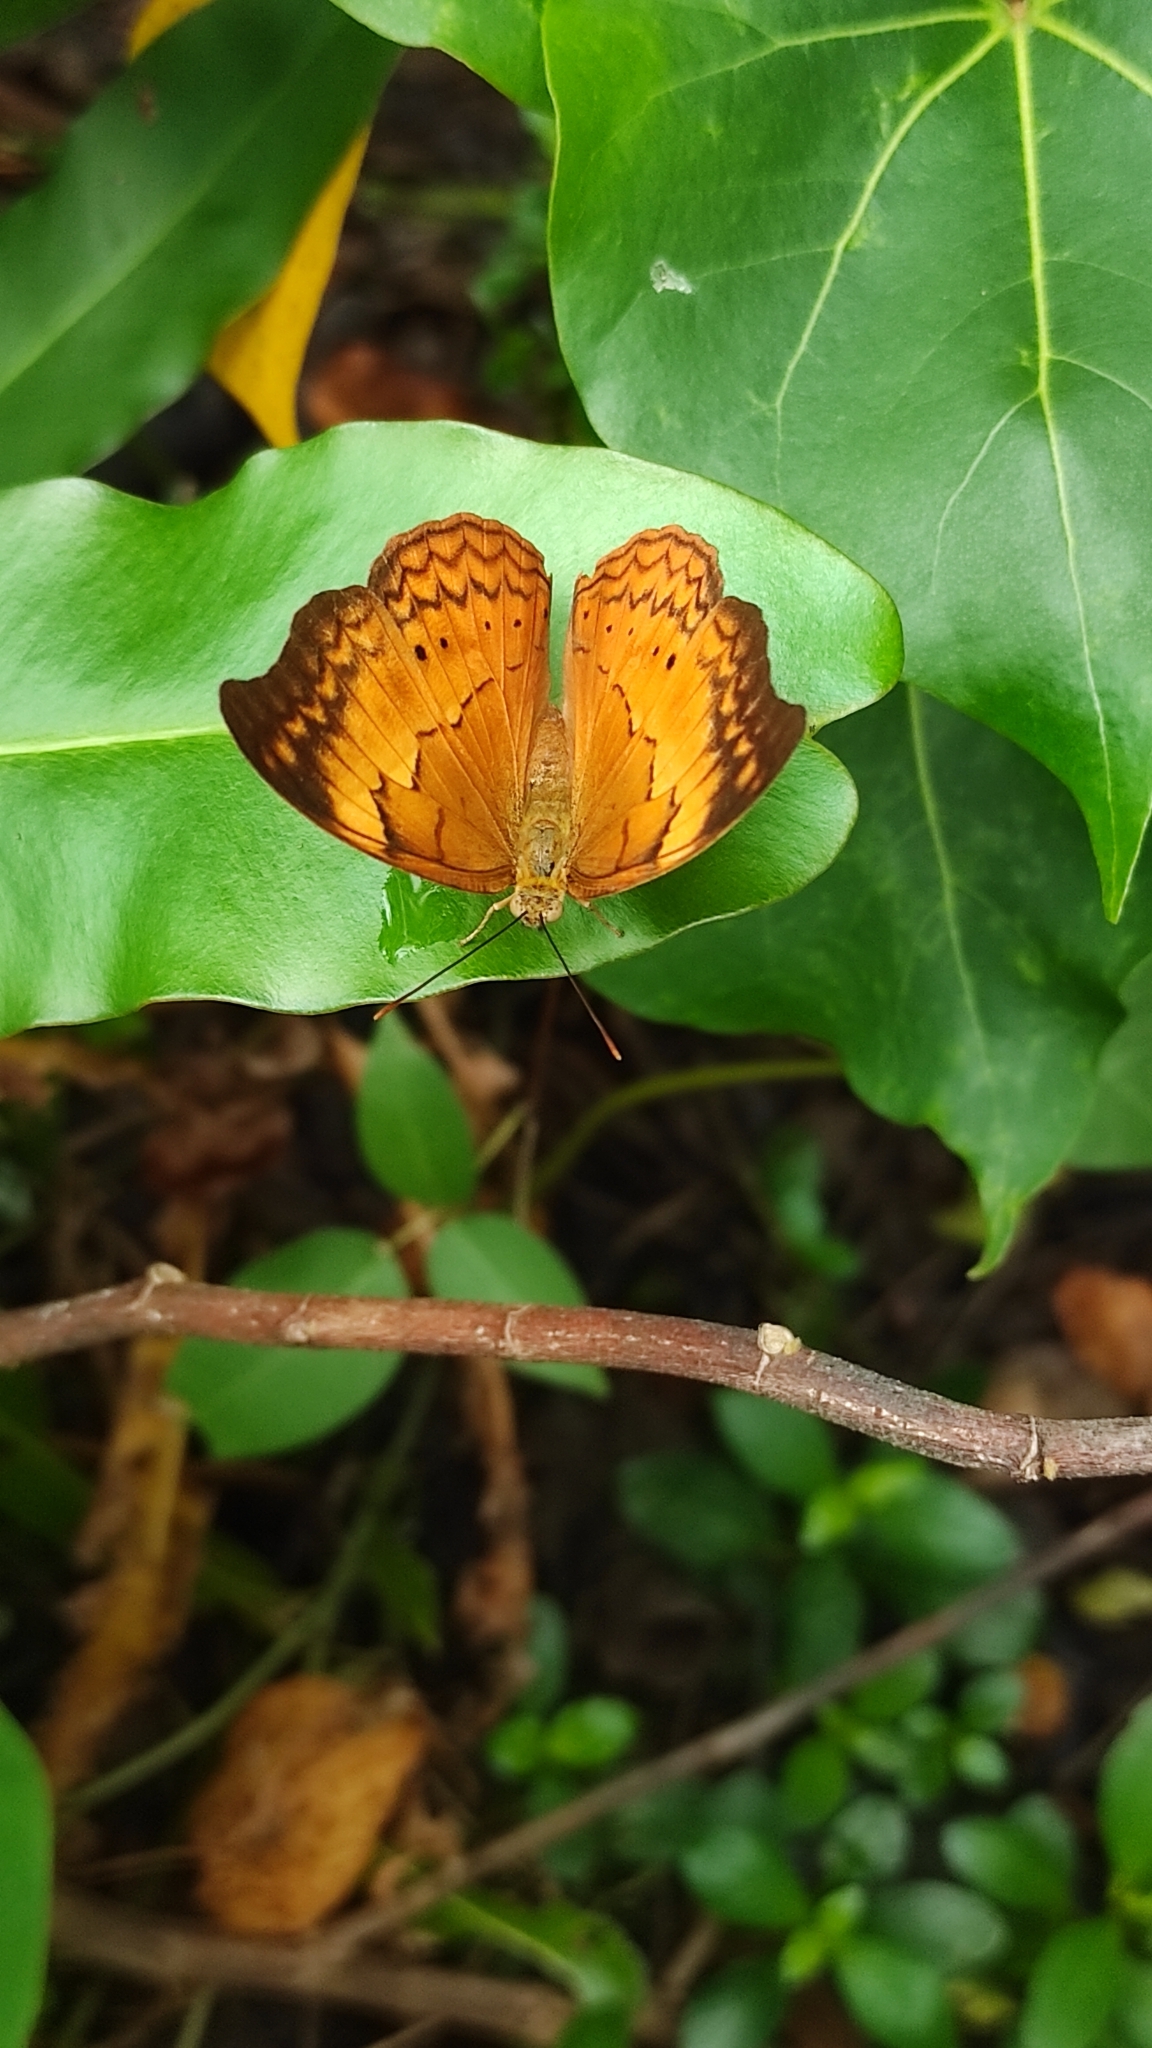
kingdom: Animalia
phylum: Arthropoda
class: Insecta
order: Lepidoptera
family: Nymphalidae
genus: Cirrochroa
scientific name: Cirrochroa thais
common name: Tamil yeoman
